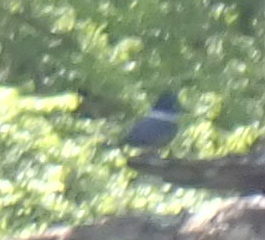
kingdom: Animalia
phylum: Chordata
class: Aves
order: Coraciiformes
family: Alcedinidae
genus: Megaceryle
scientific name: Megaceryle alcyon
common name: Belted kingfisher
